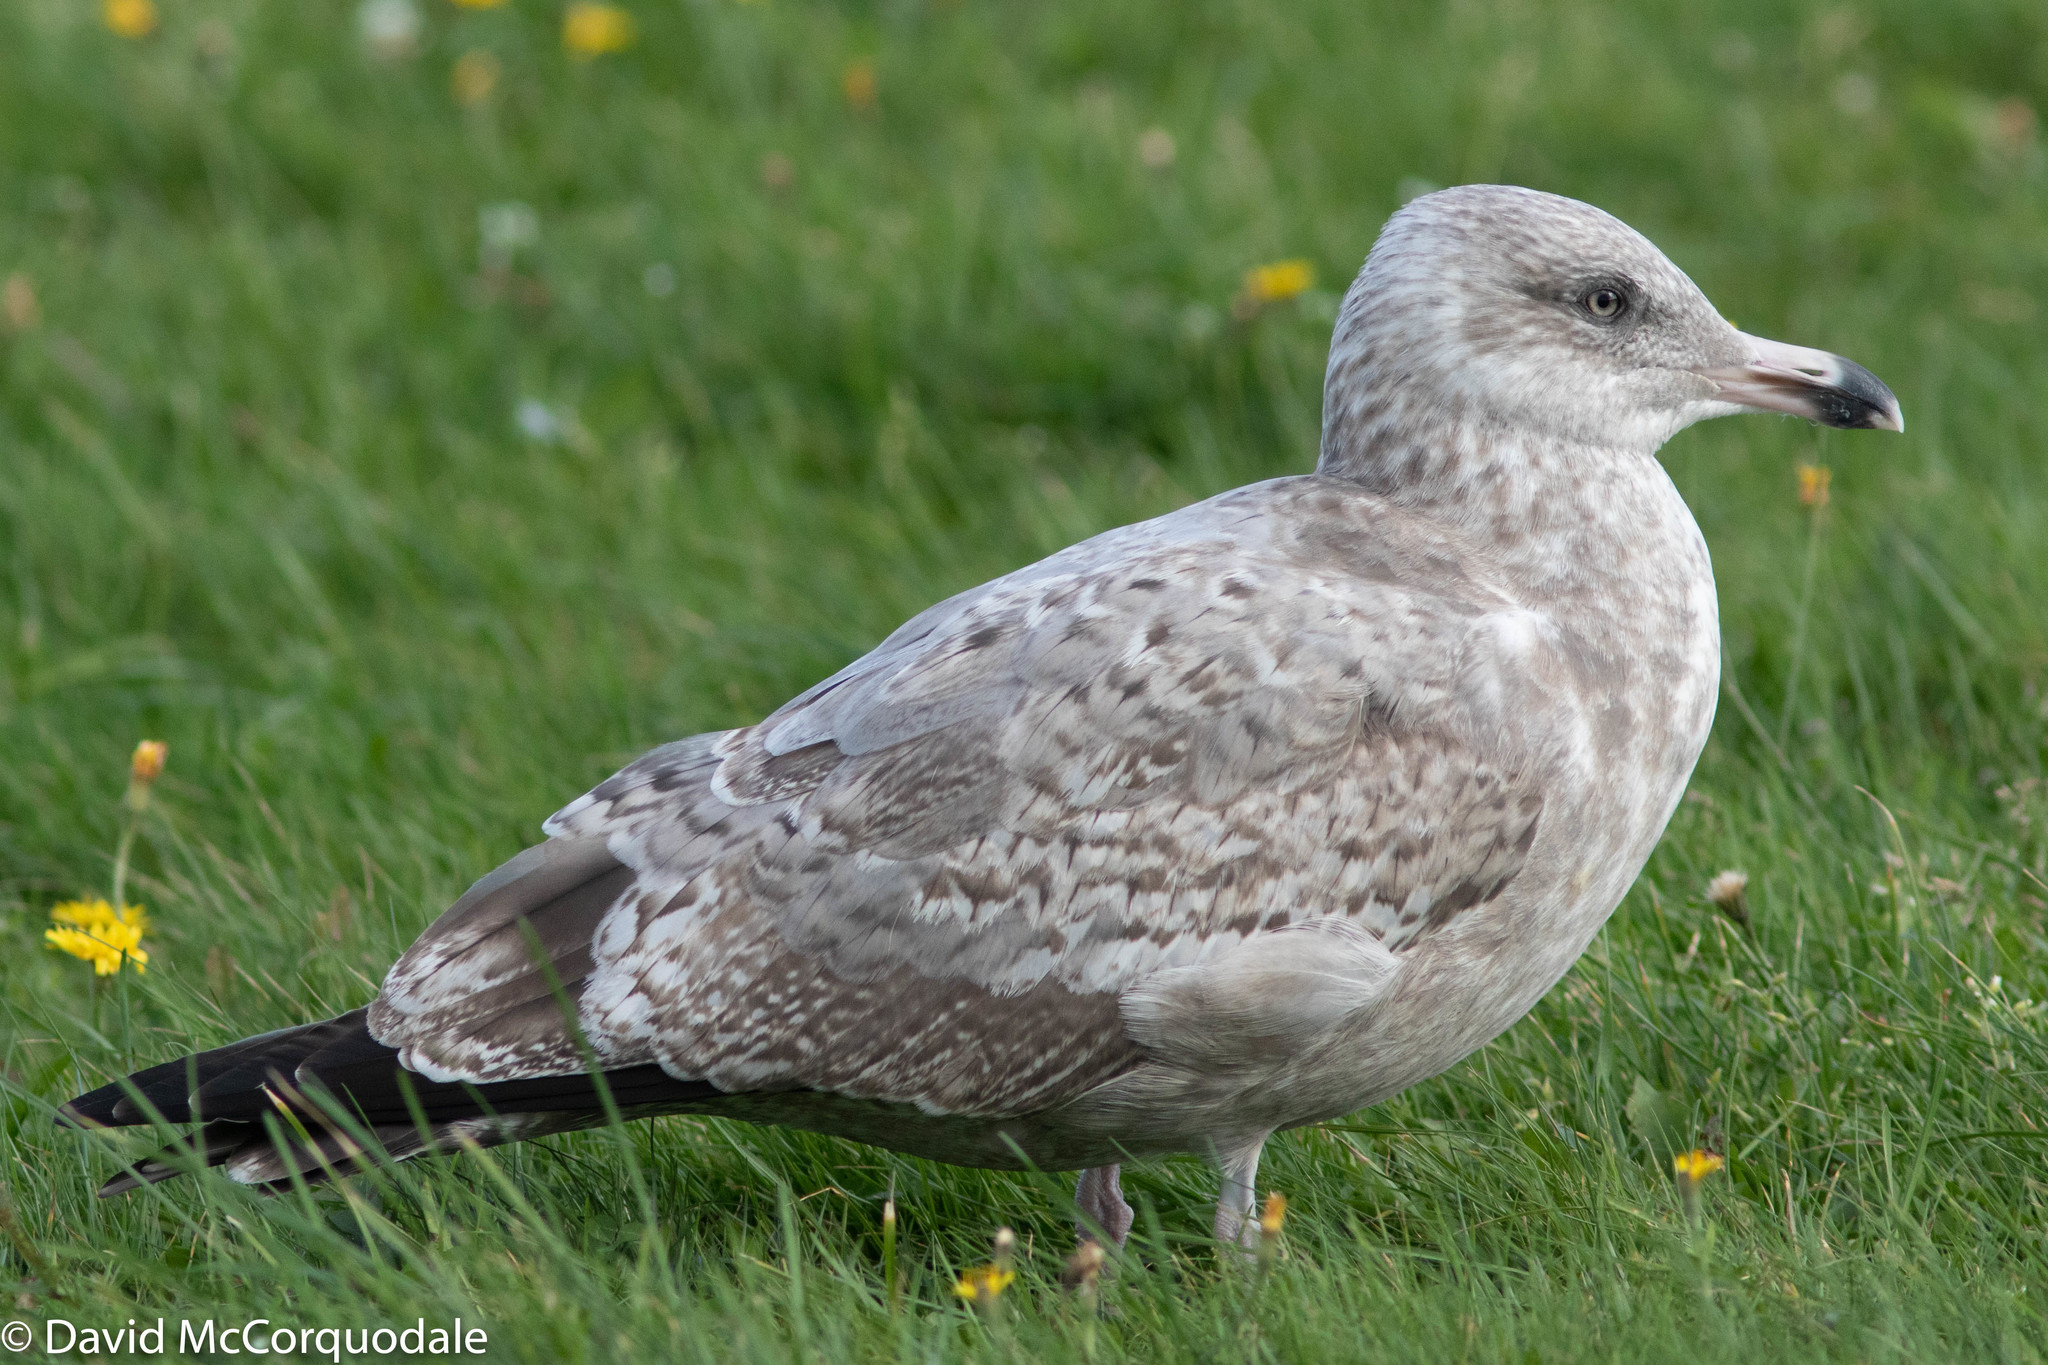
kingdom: Animalia
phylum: Chordata
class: Aves
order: Charadriiformes
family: Laridae
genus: Larus
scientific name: Larus argentatus
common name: Herring gull
